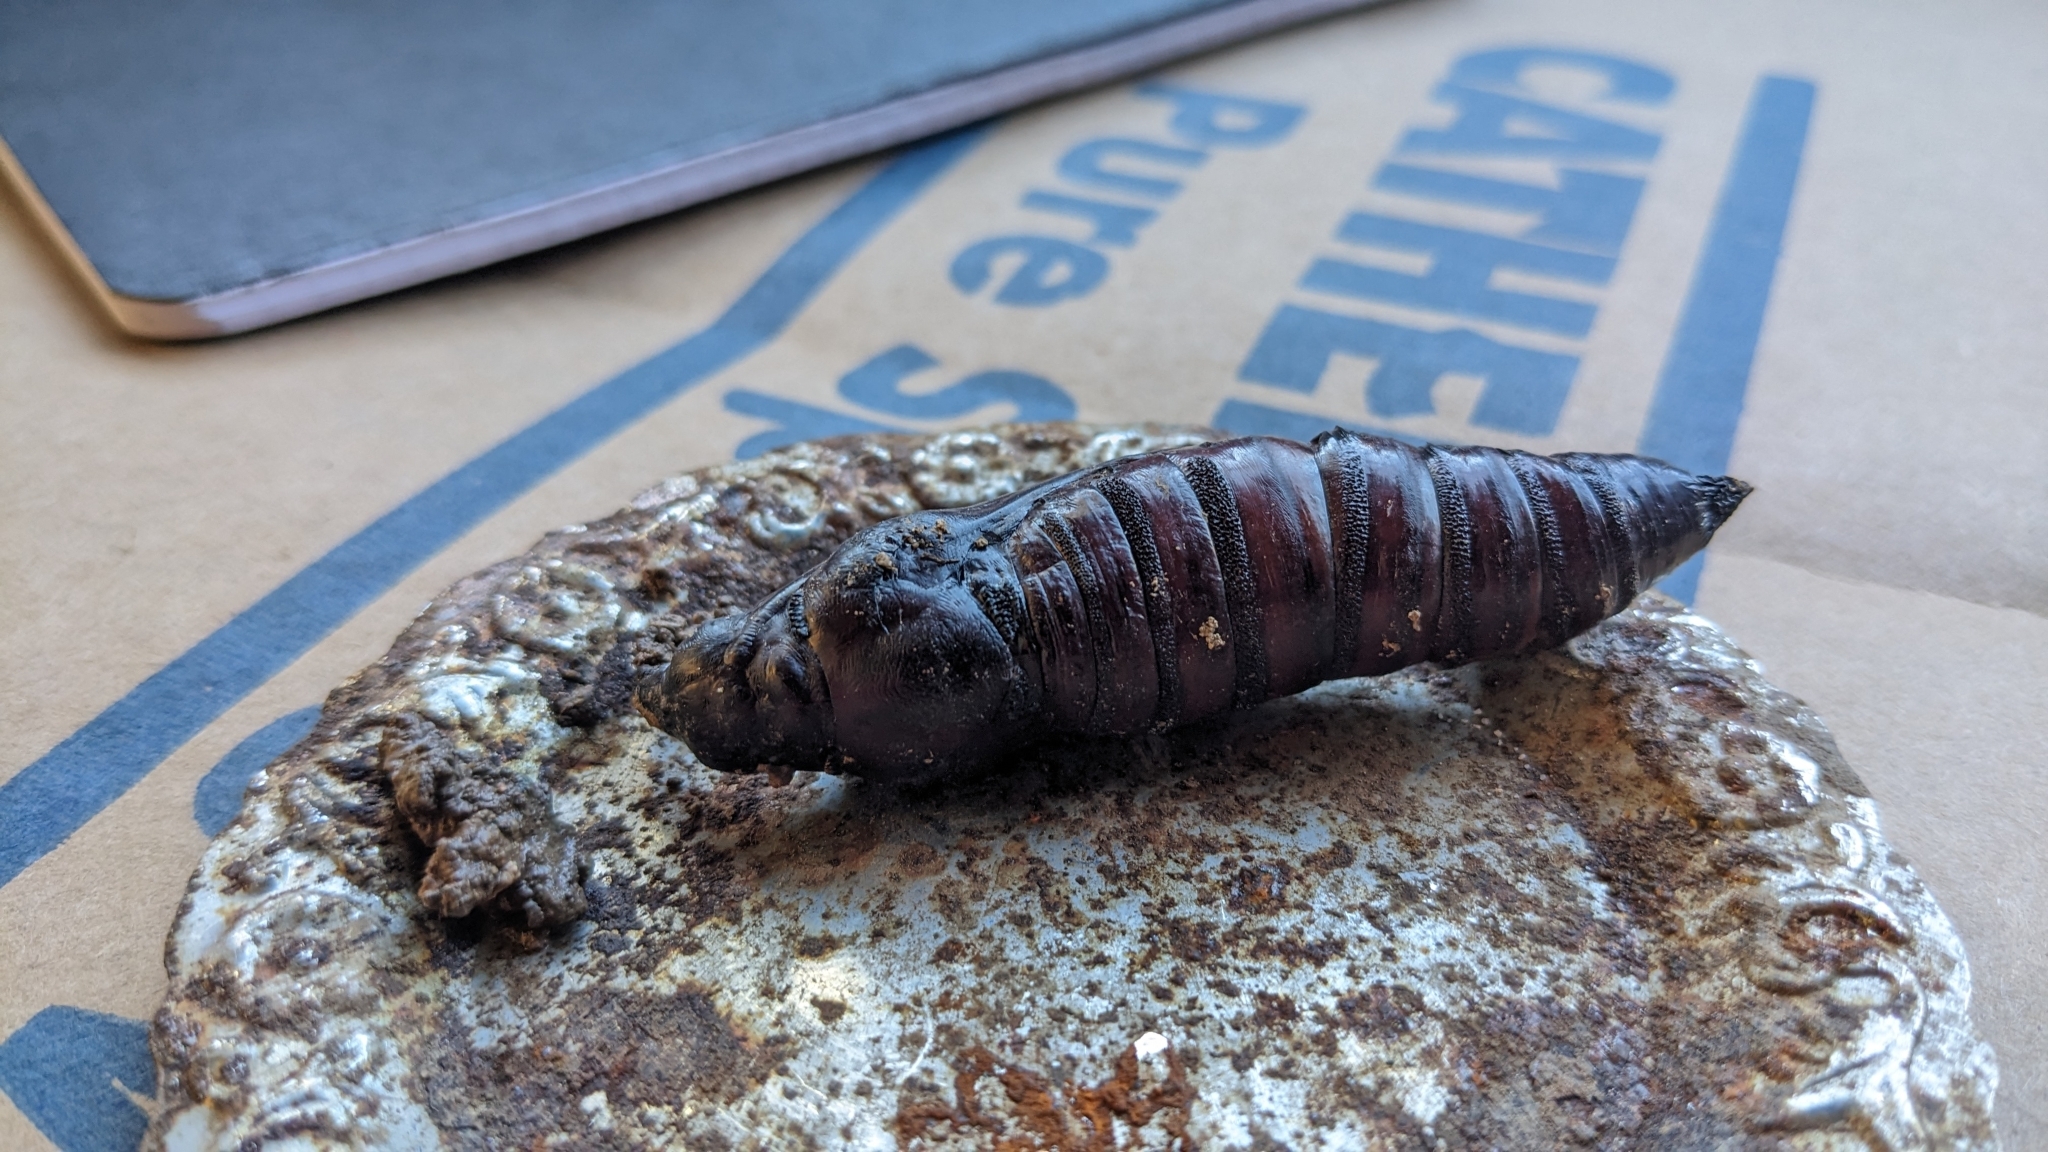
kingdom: Animalia
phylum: Arthropoda
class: Insecta
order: Lepidoptera
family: Sphingidae
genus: Cocytius
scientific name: Cocytius antaeus
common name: Giant sphinx
